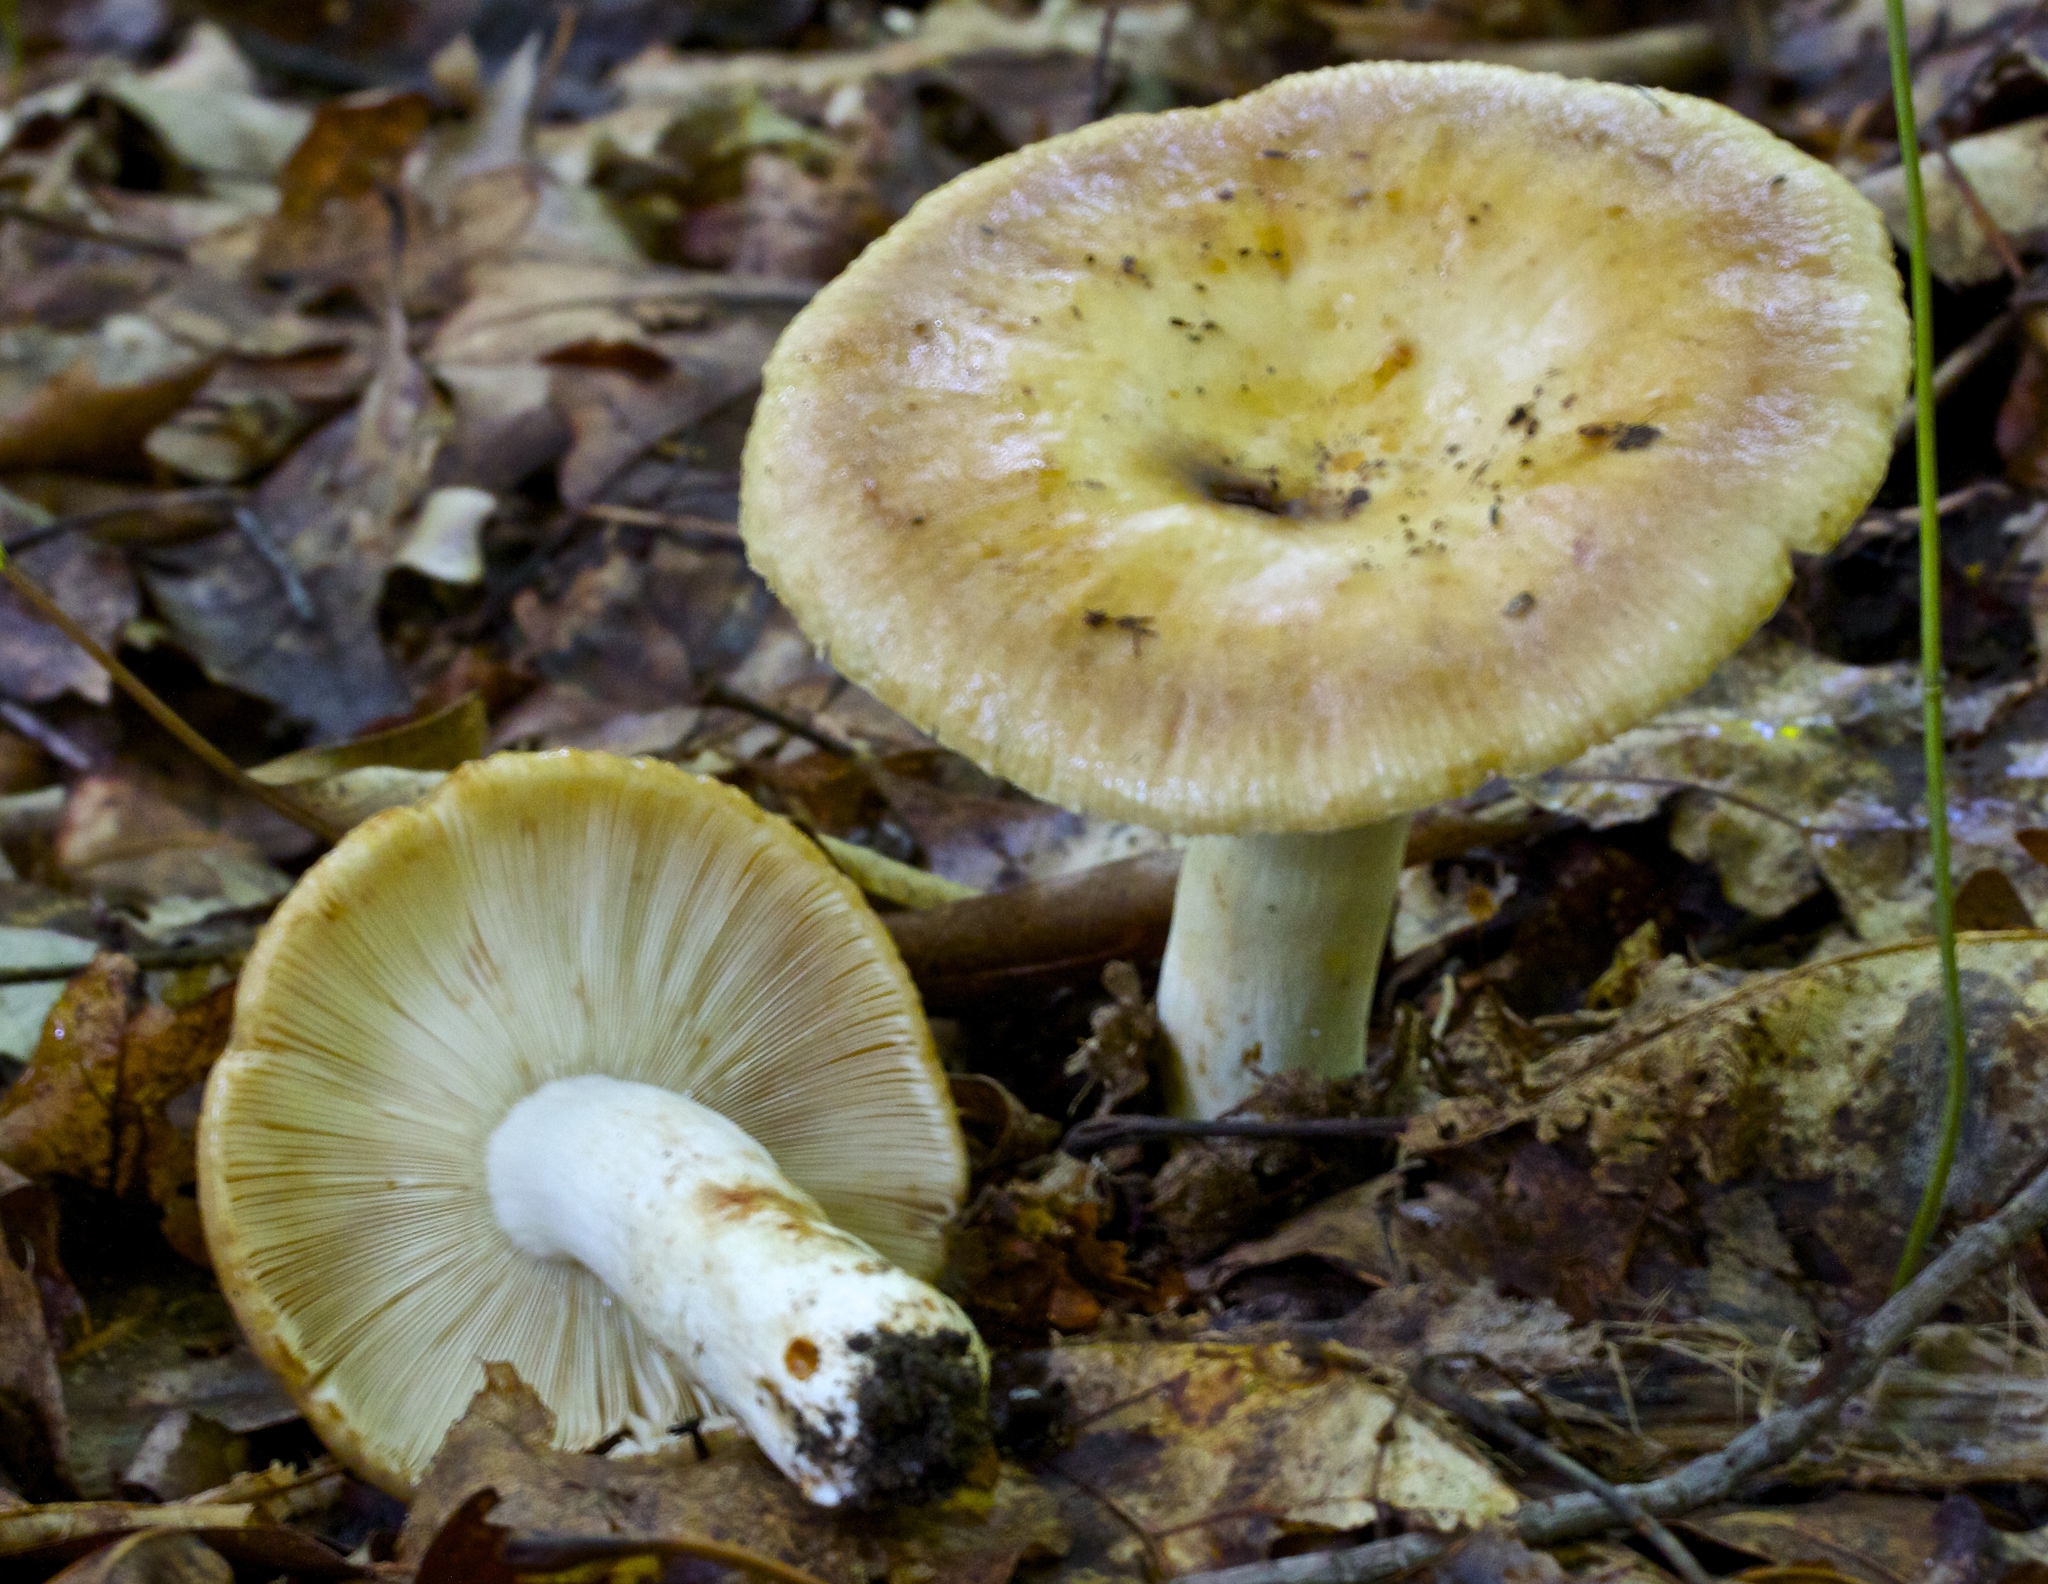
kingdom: Fungi
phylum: Basidiomycota
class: Agaricomycetes
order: Russulales
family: Russulaceae
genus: Russula
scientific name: Russula grata
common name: Bitter almond brittlegill
